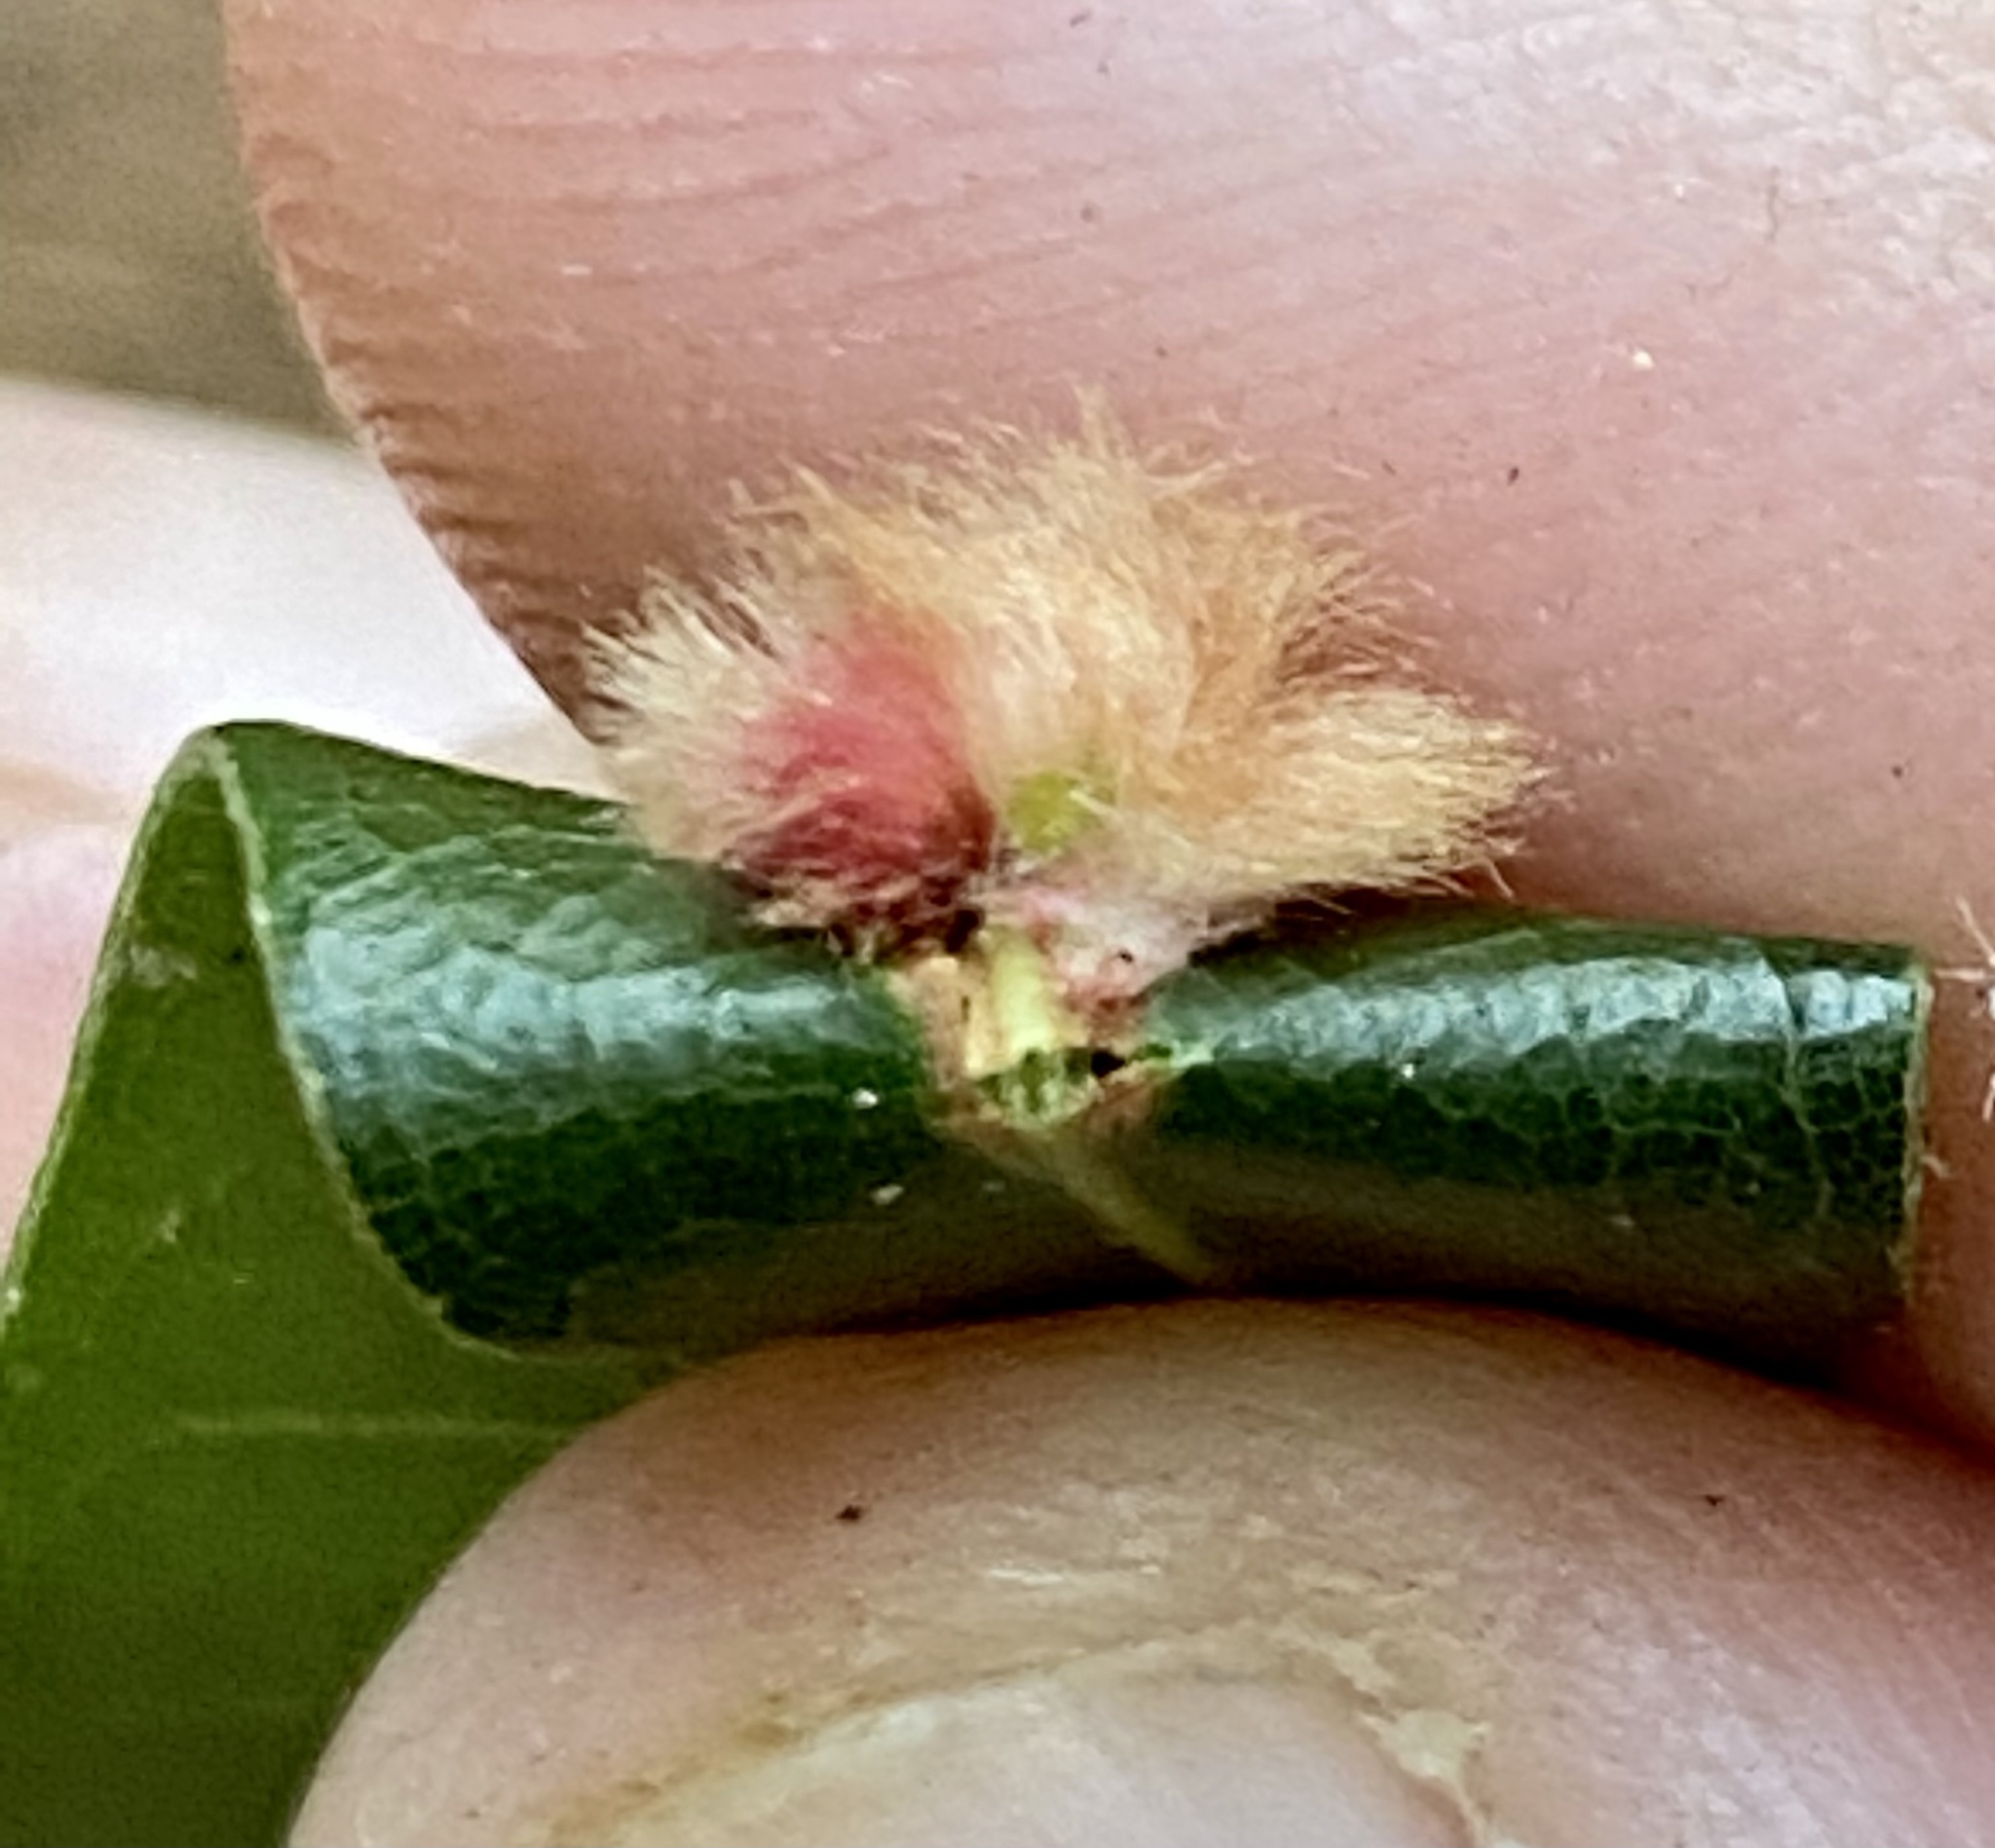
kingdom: Animalia
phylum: Arthropoda
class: Insecta
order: Hymenoptera
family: Cynipidae
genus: Callirhytis
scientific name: Callirhytis
